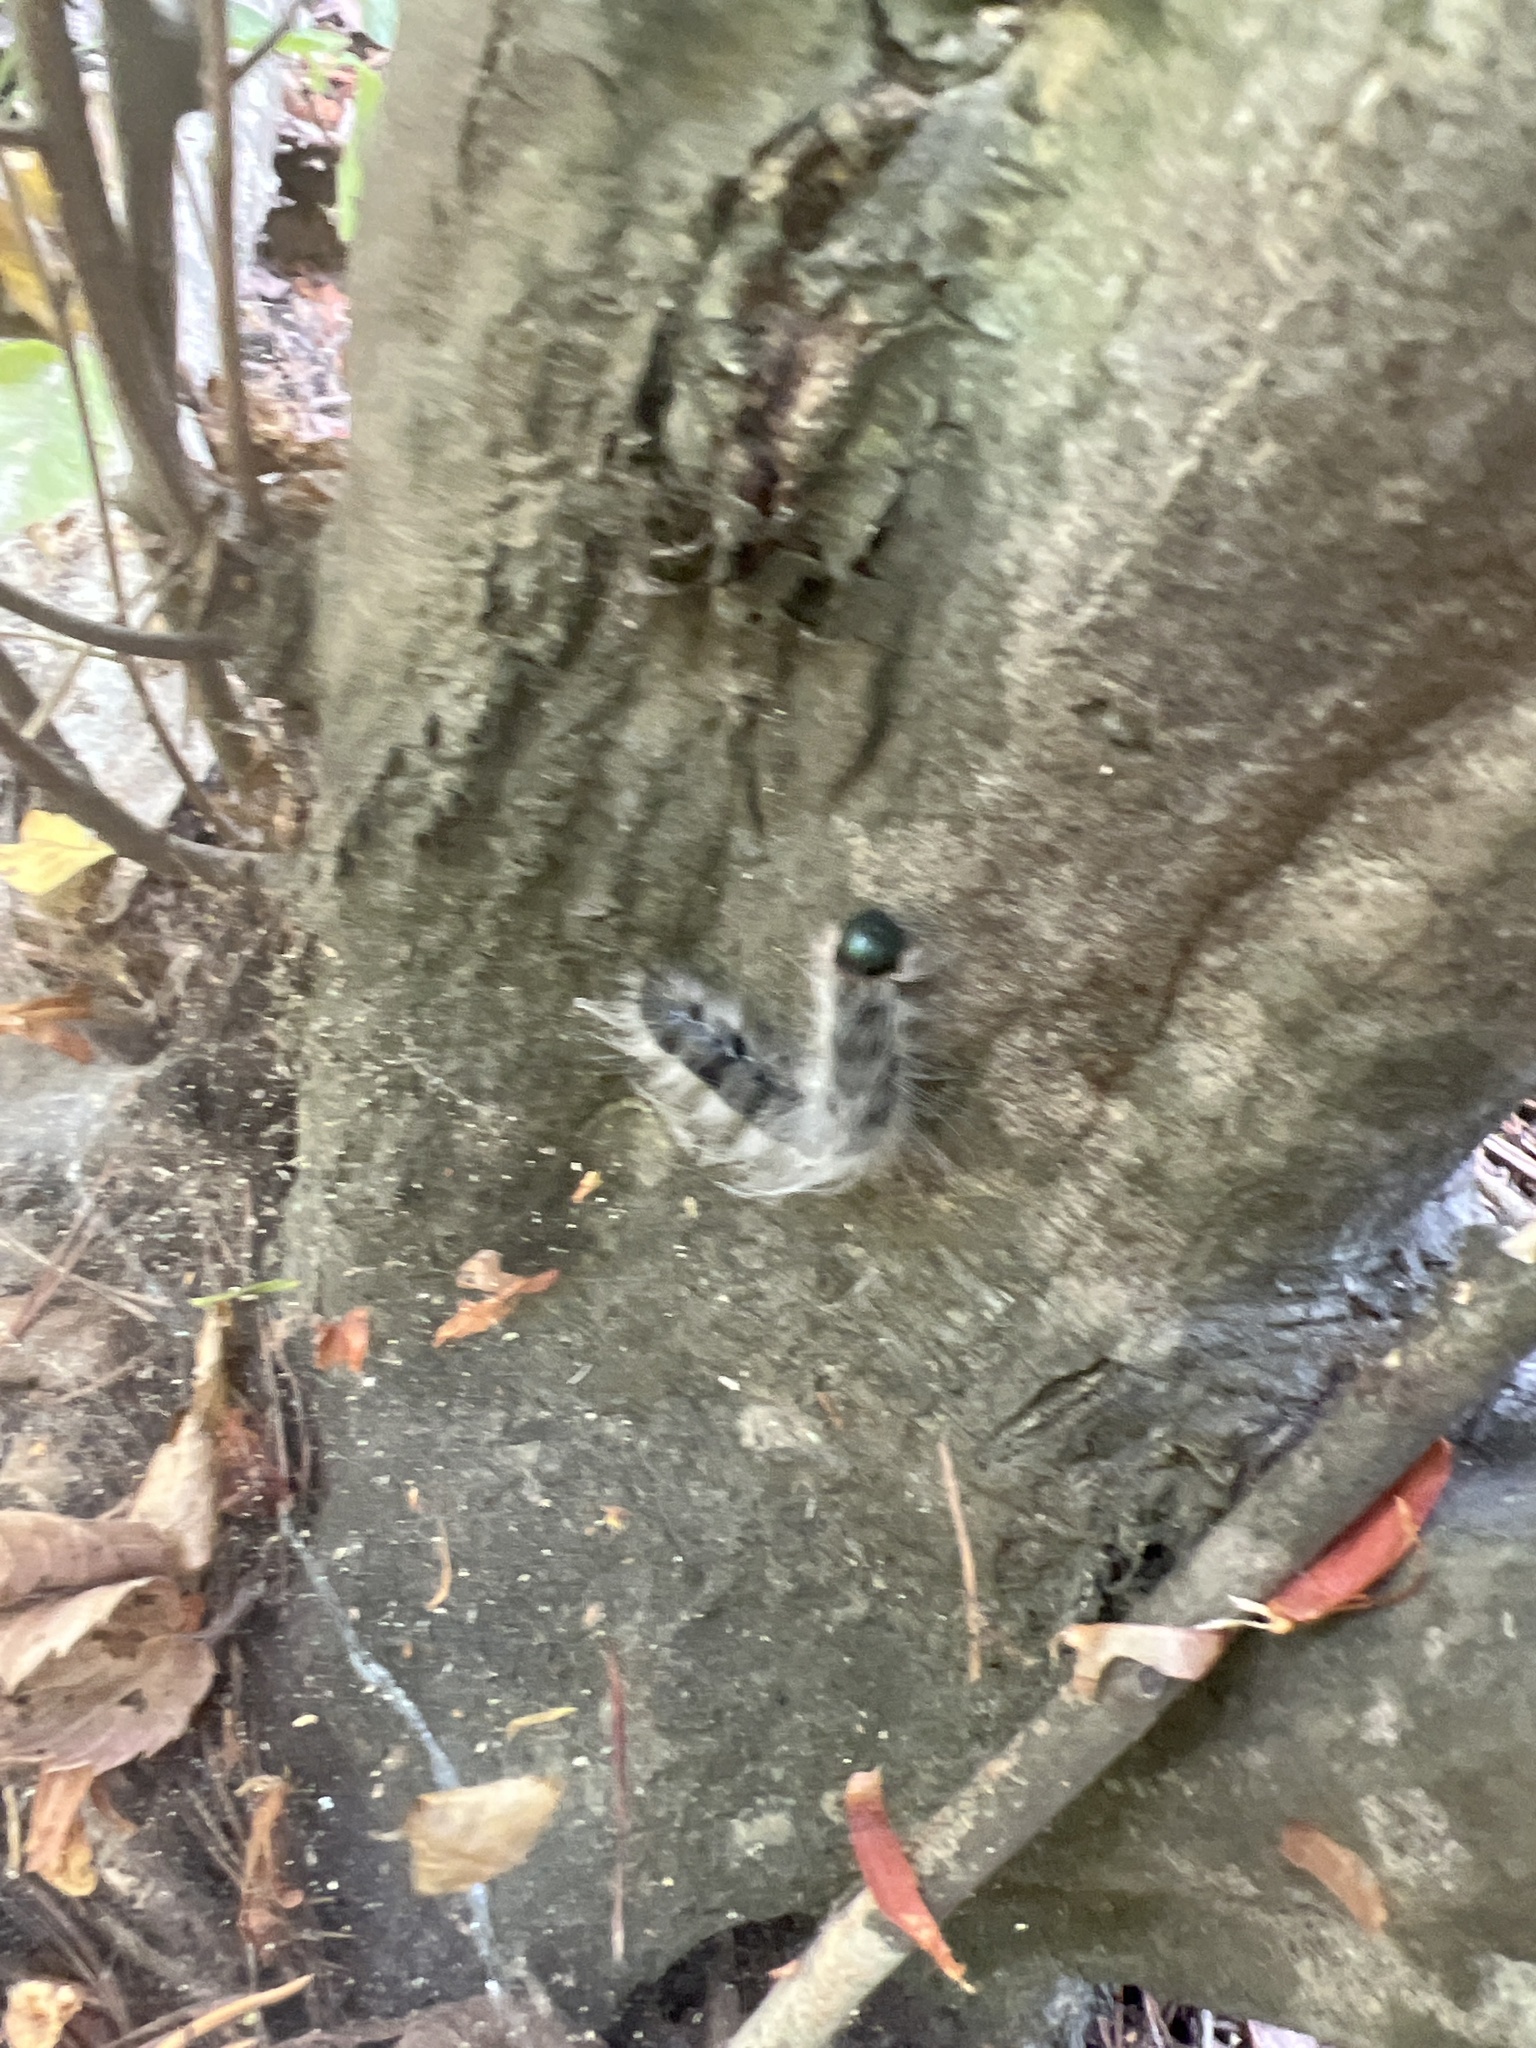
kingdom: Animalia
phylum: Arthropoda
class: Insecta
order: Lepidoptera
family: Notodontidae
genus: Datana
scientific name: Datana integerrima
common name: Walnut caterpillar
